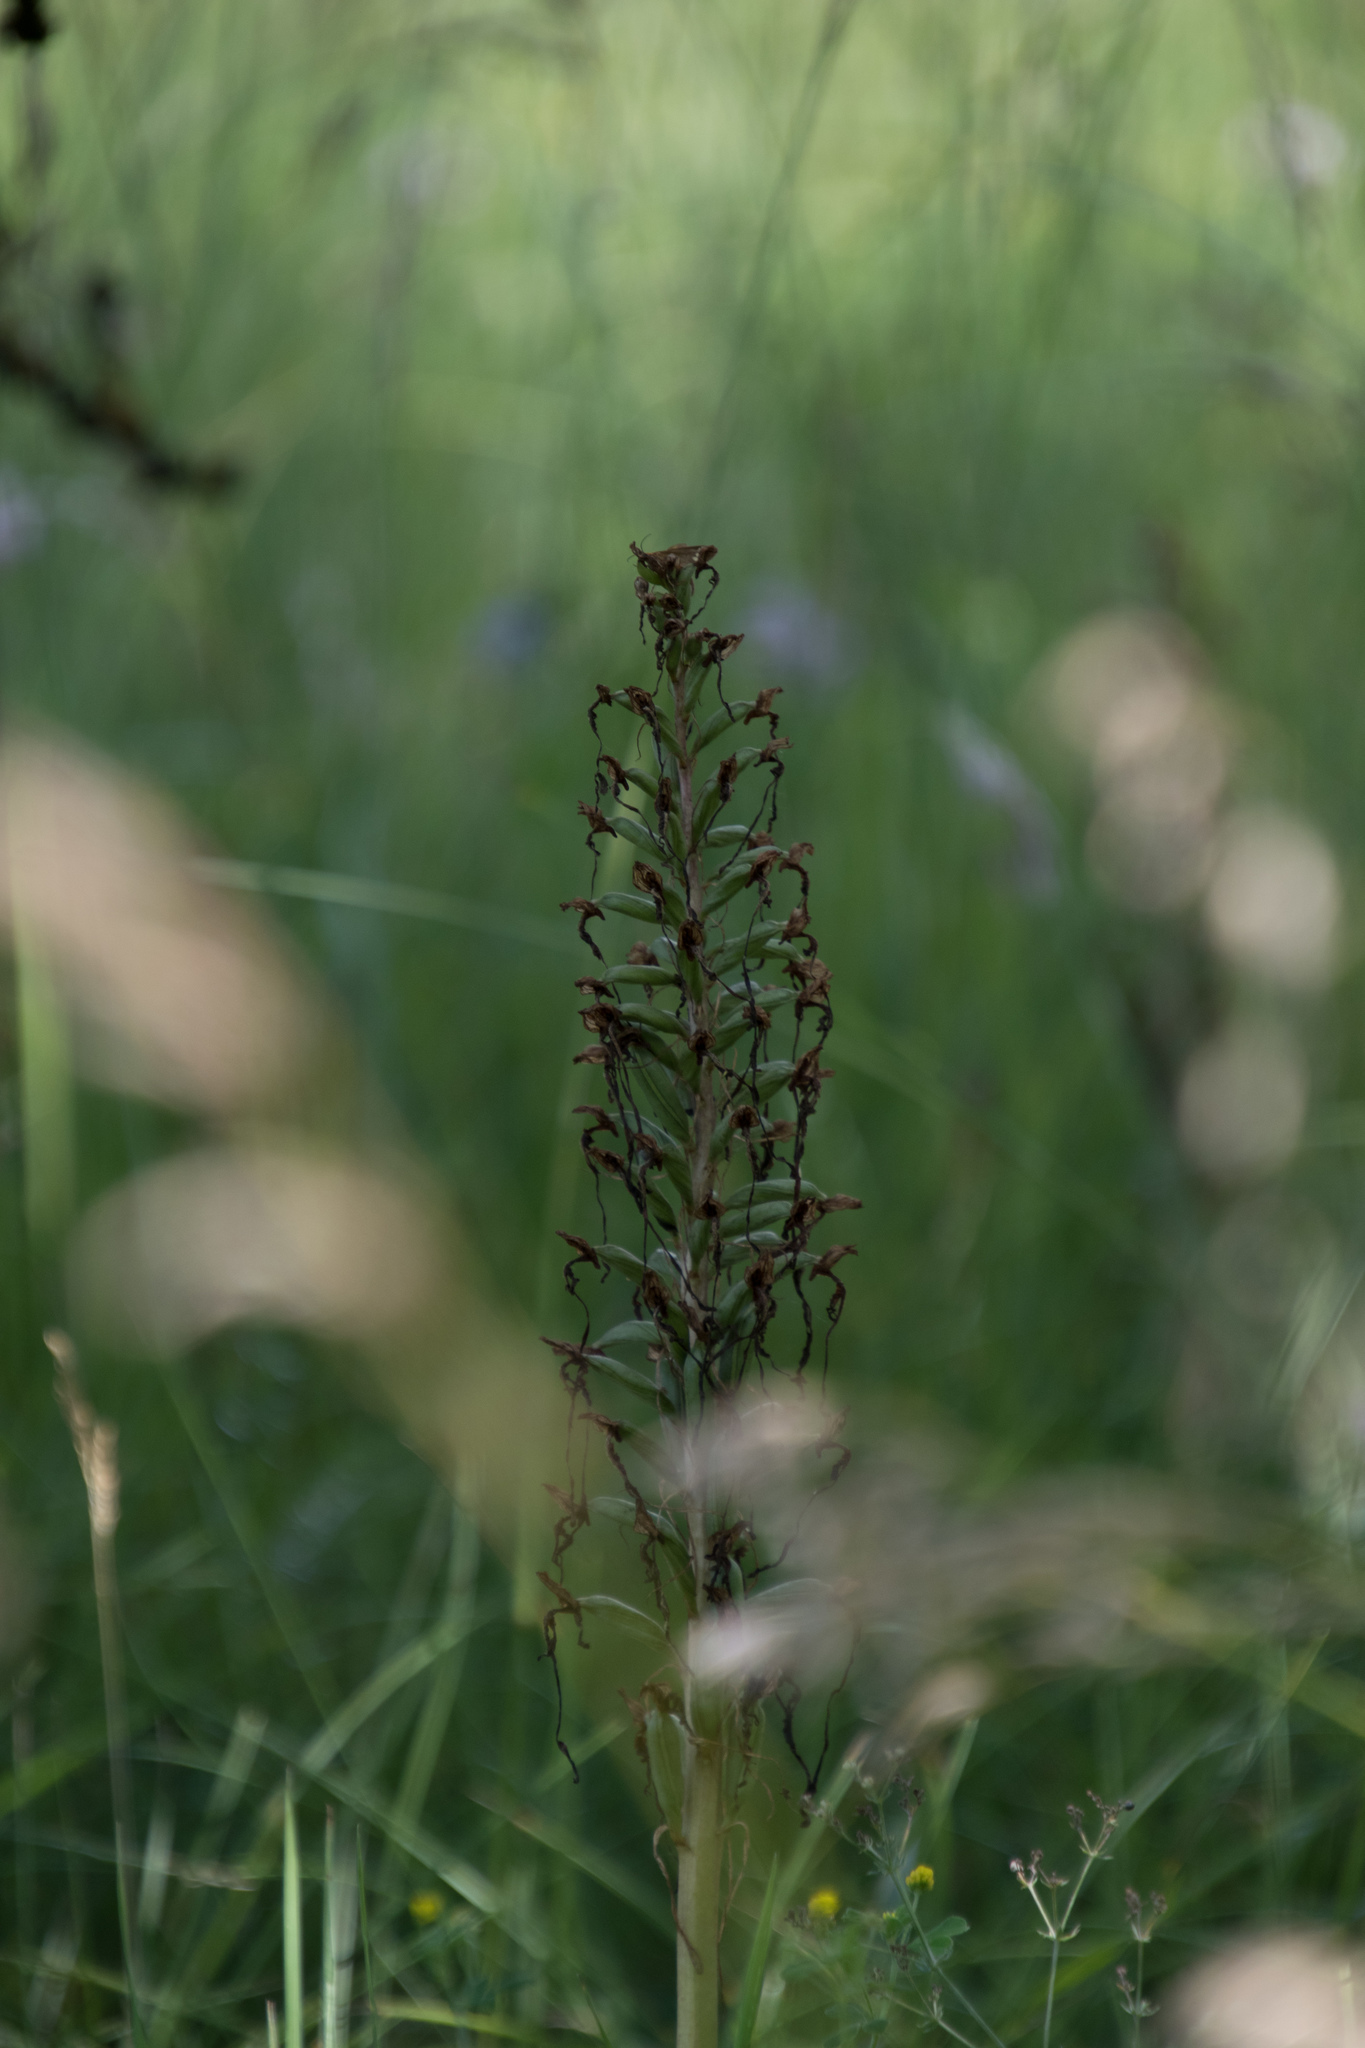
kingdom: Plantae
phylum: Tracheophyta
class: Liliopsida
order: Asparagales
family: Orchidaceae
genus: Himantoglossum
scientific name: Himantoglossum hircinum
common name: Lizard orchid
